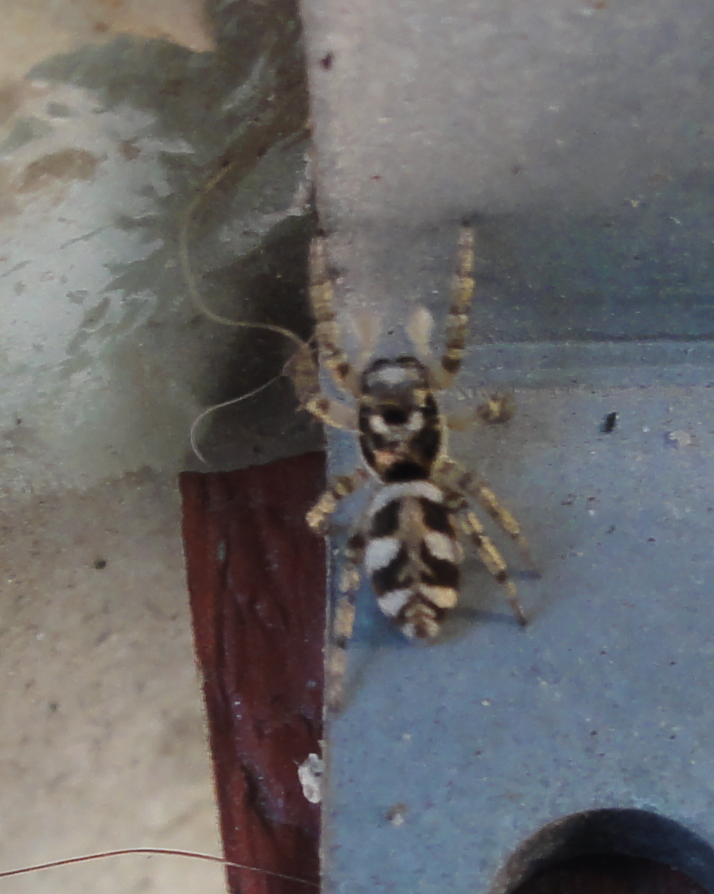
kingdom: Animalia
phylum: Arthropoda
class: Arachnida
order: Araneae
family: Salticidae
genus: Salticus
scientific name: Salticus scenicus
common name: Zebra jumper
